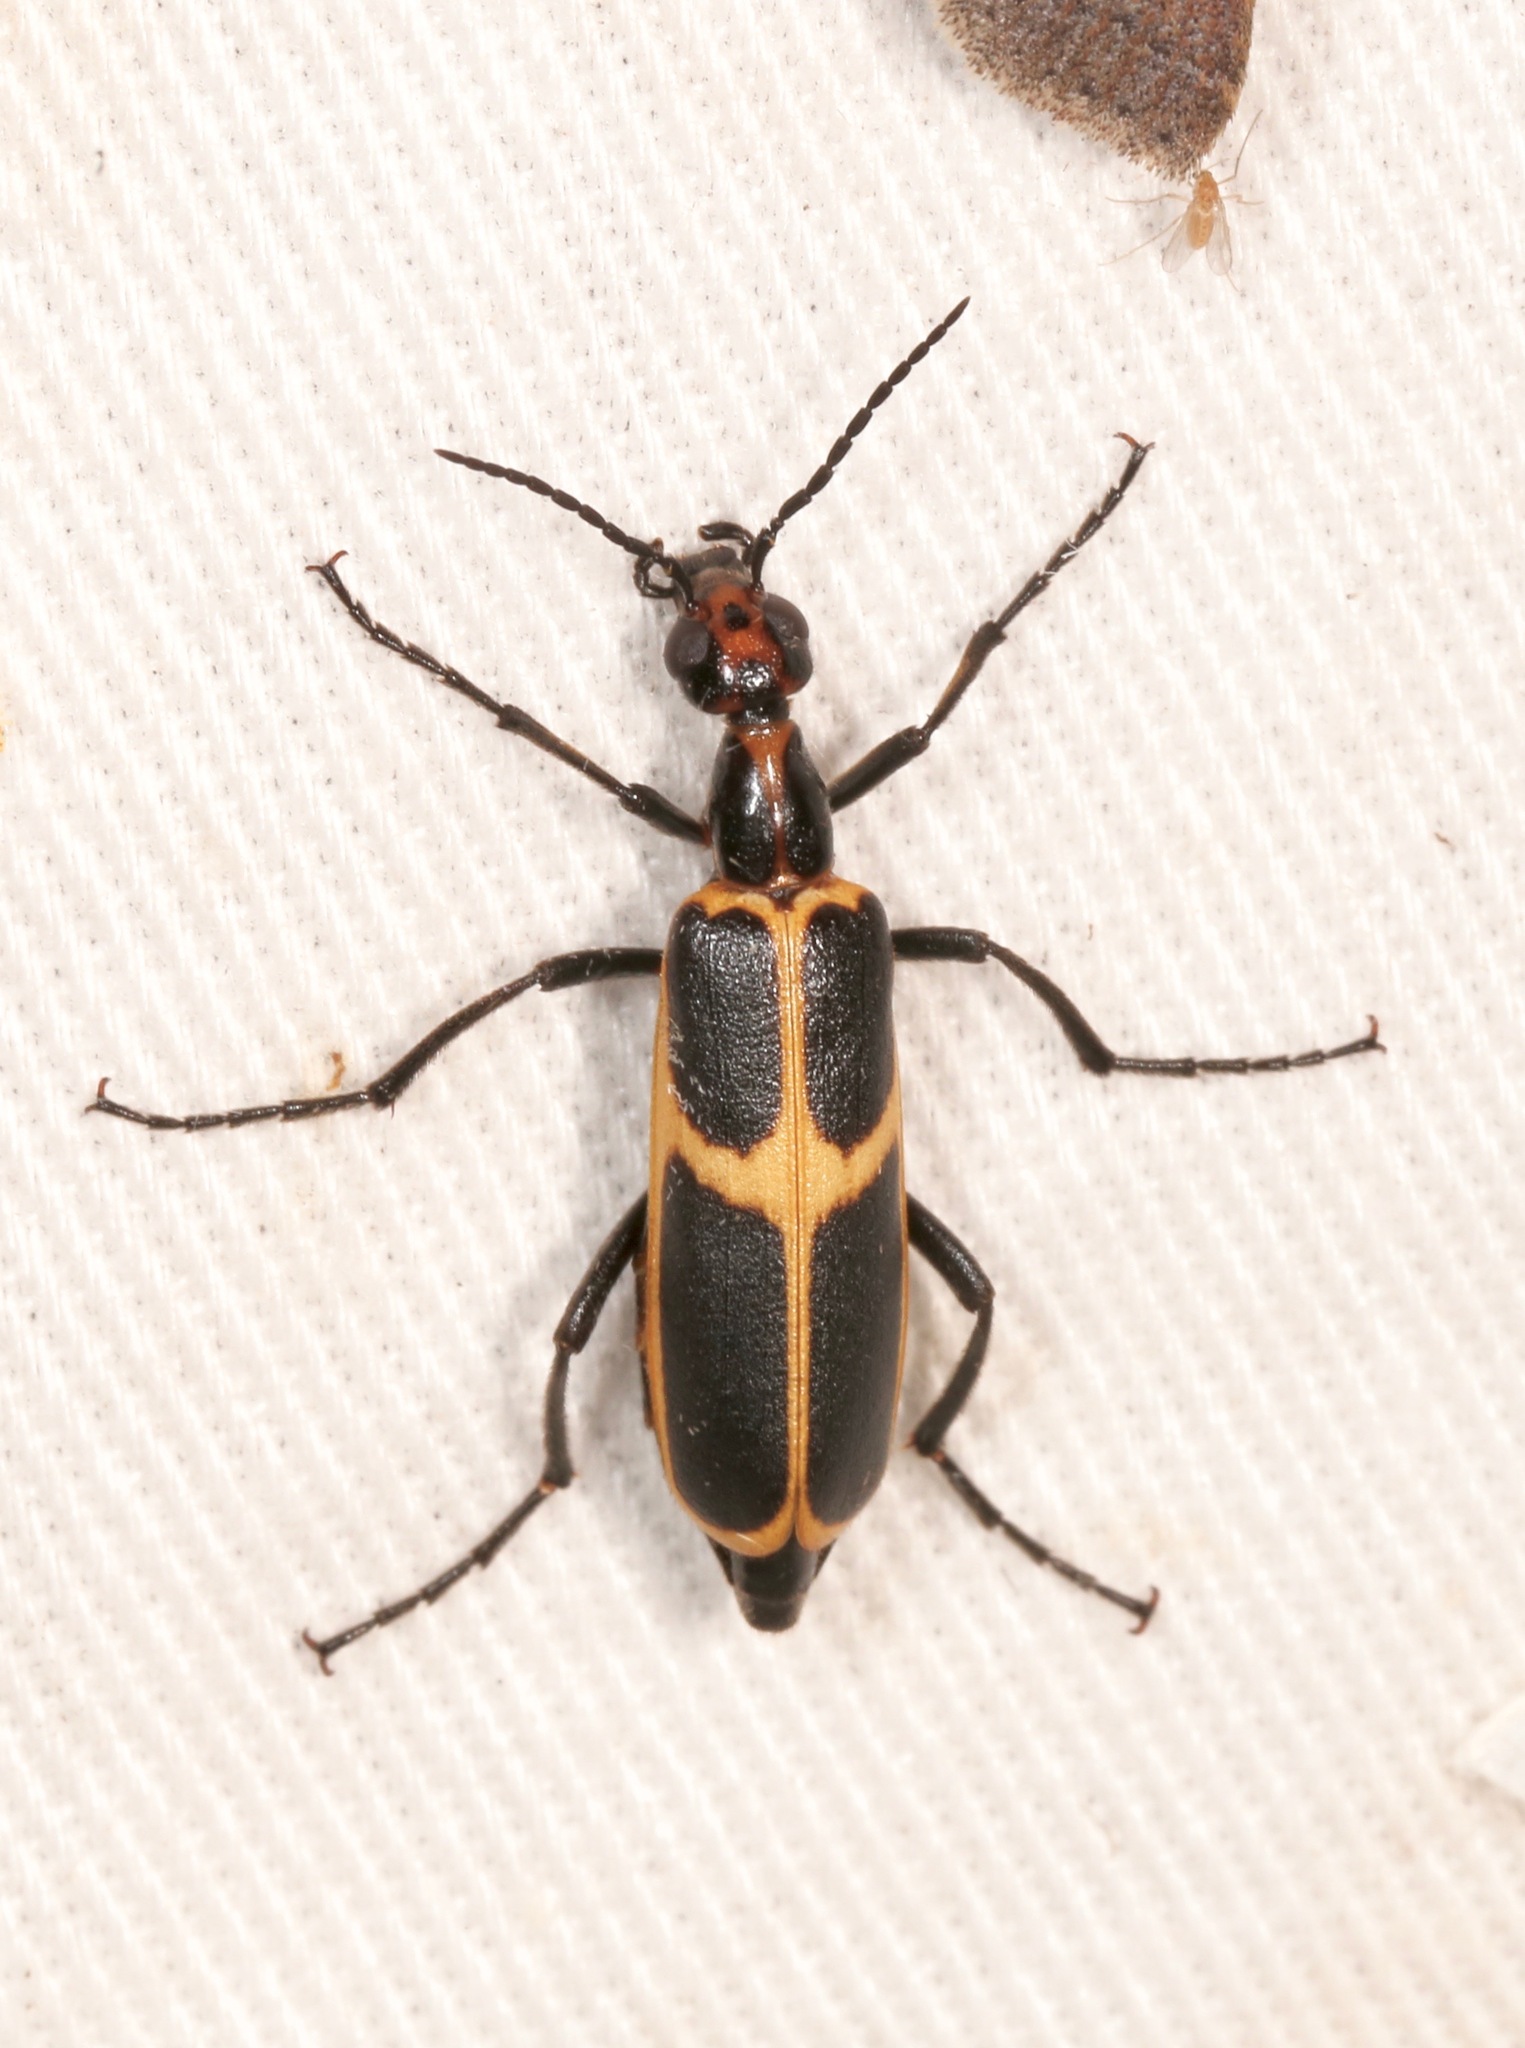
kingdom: Animalia
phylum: Arthropoda
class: Insecta
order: Coleoptera
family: Meloidae
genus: Pyrota
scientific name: Pyrota
